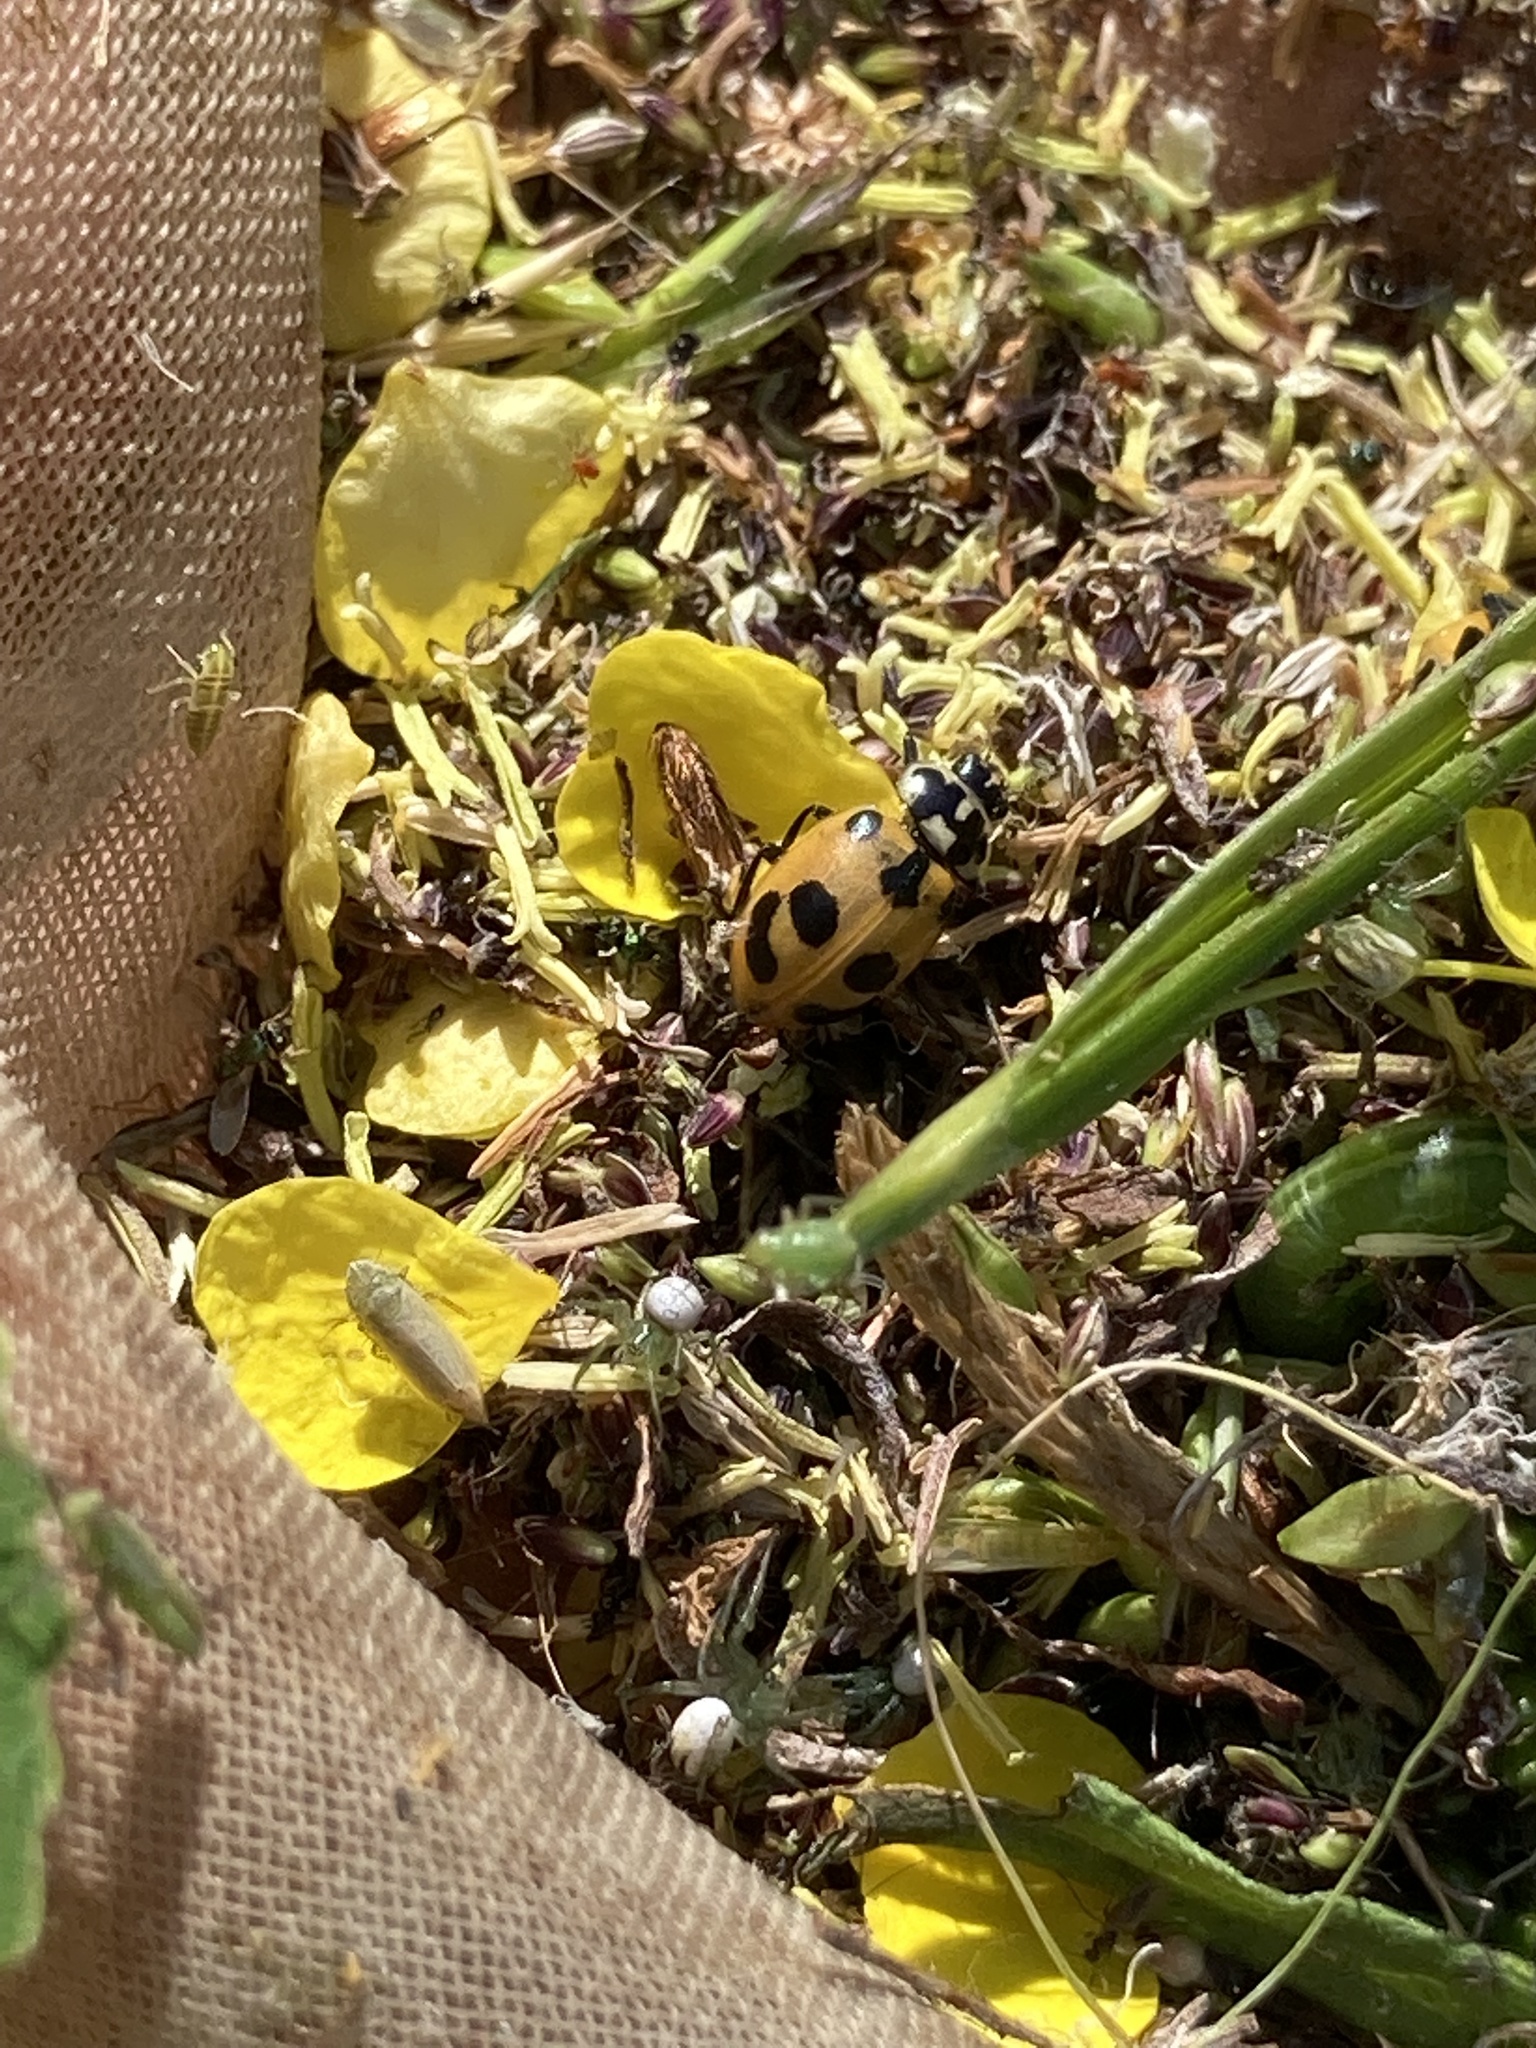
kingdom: Animalia
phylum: Arthropoda
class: Insecta
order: Coleoptera
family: Coccinellidae
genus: Hippodamia
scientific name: Hippodamia parenthesis
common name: Parenthesis lady beetle
